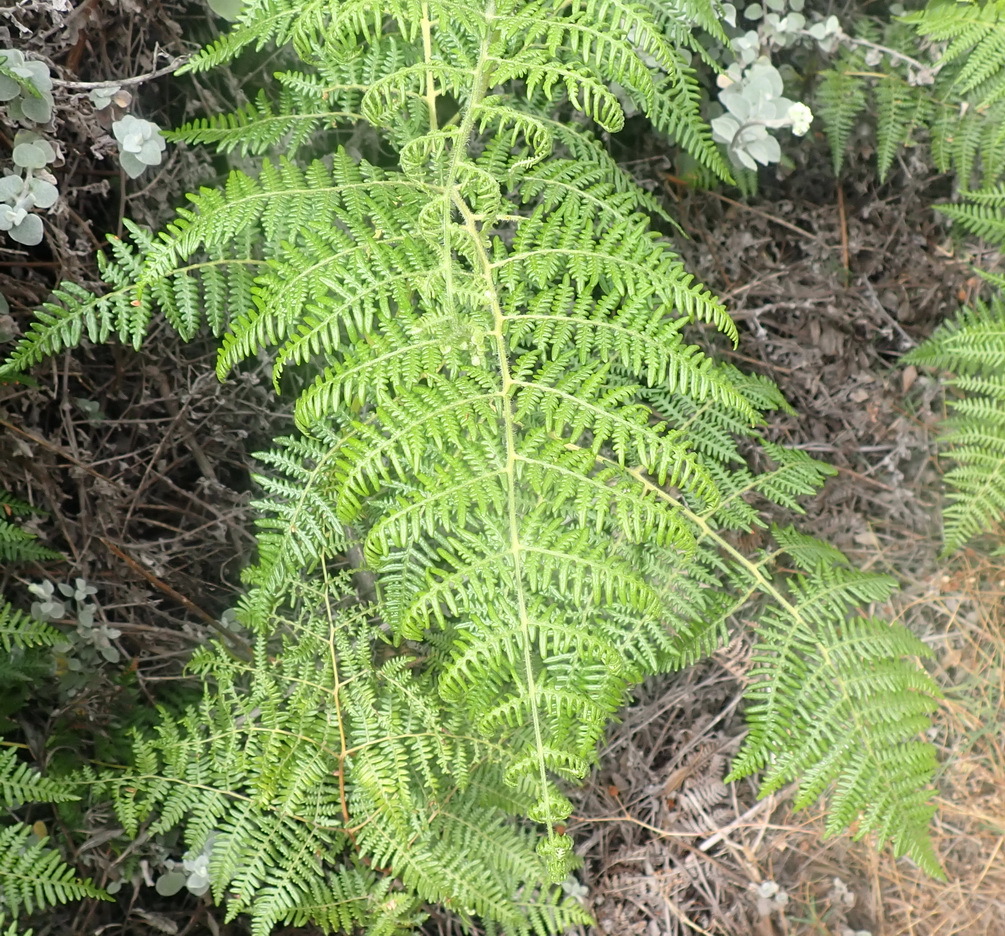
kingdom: Plantae
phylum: Tracheophyta
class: Polypodiopsida
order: Polypodiales
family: Dennstaedtiaceae
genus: Pteridium
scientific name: Pteridium aquilinum
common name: Bracken
